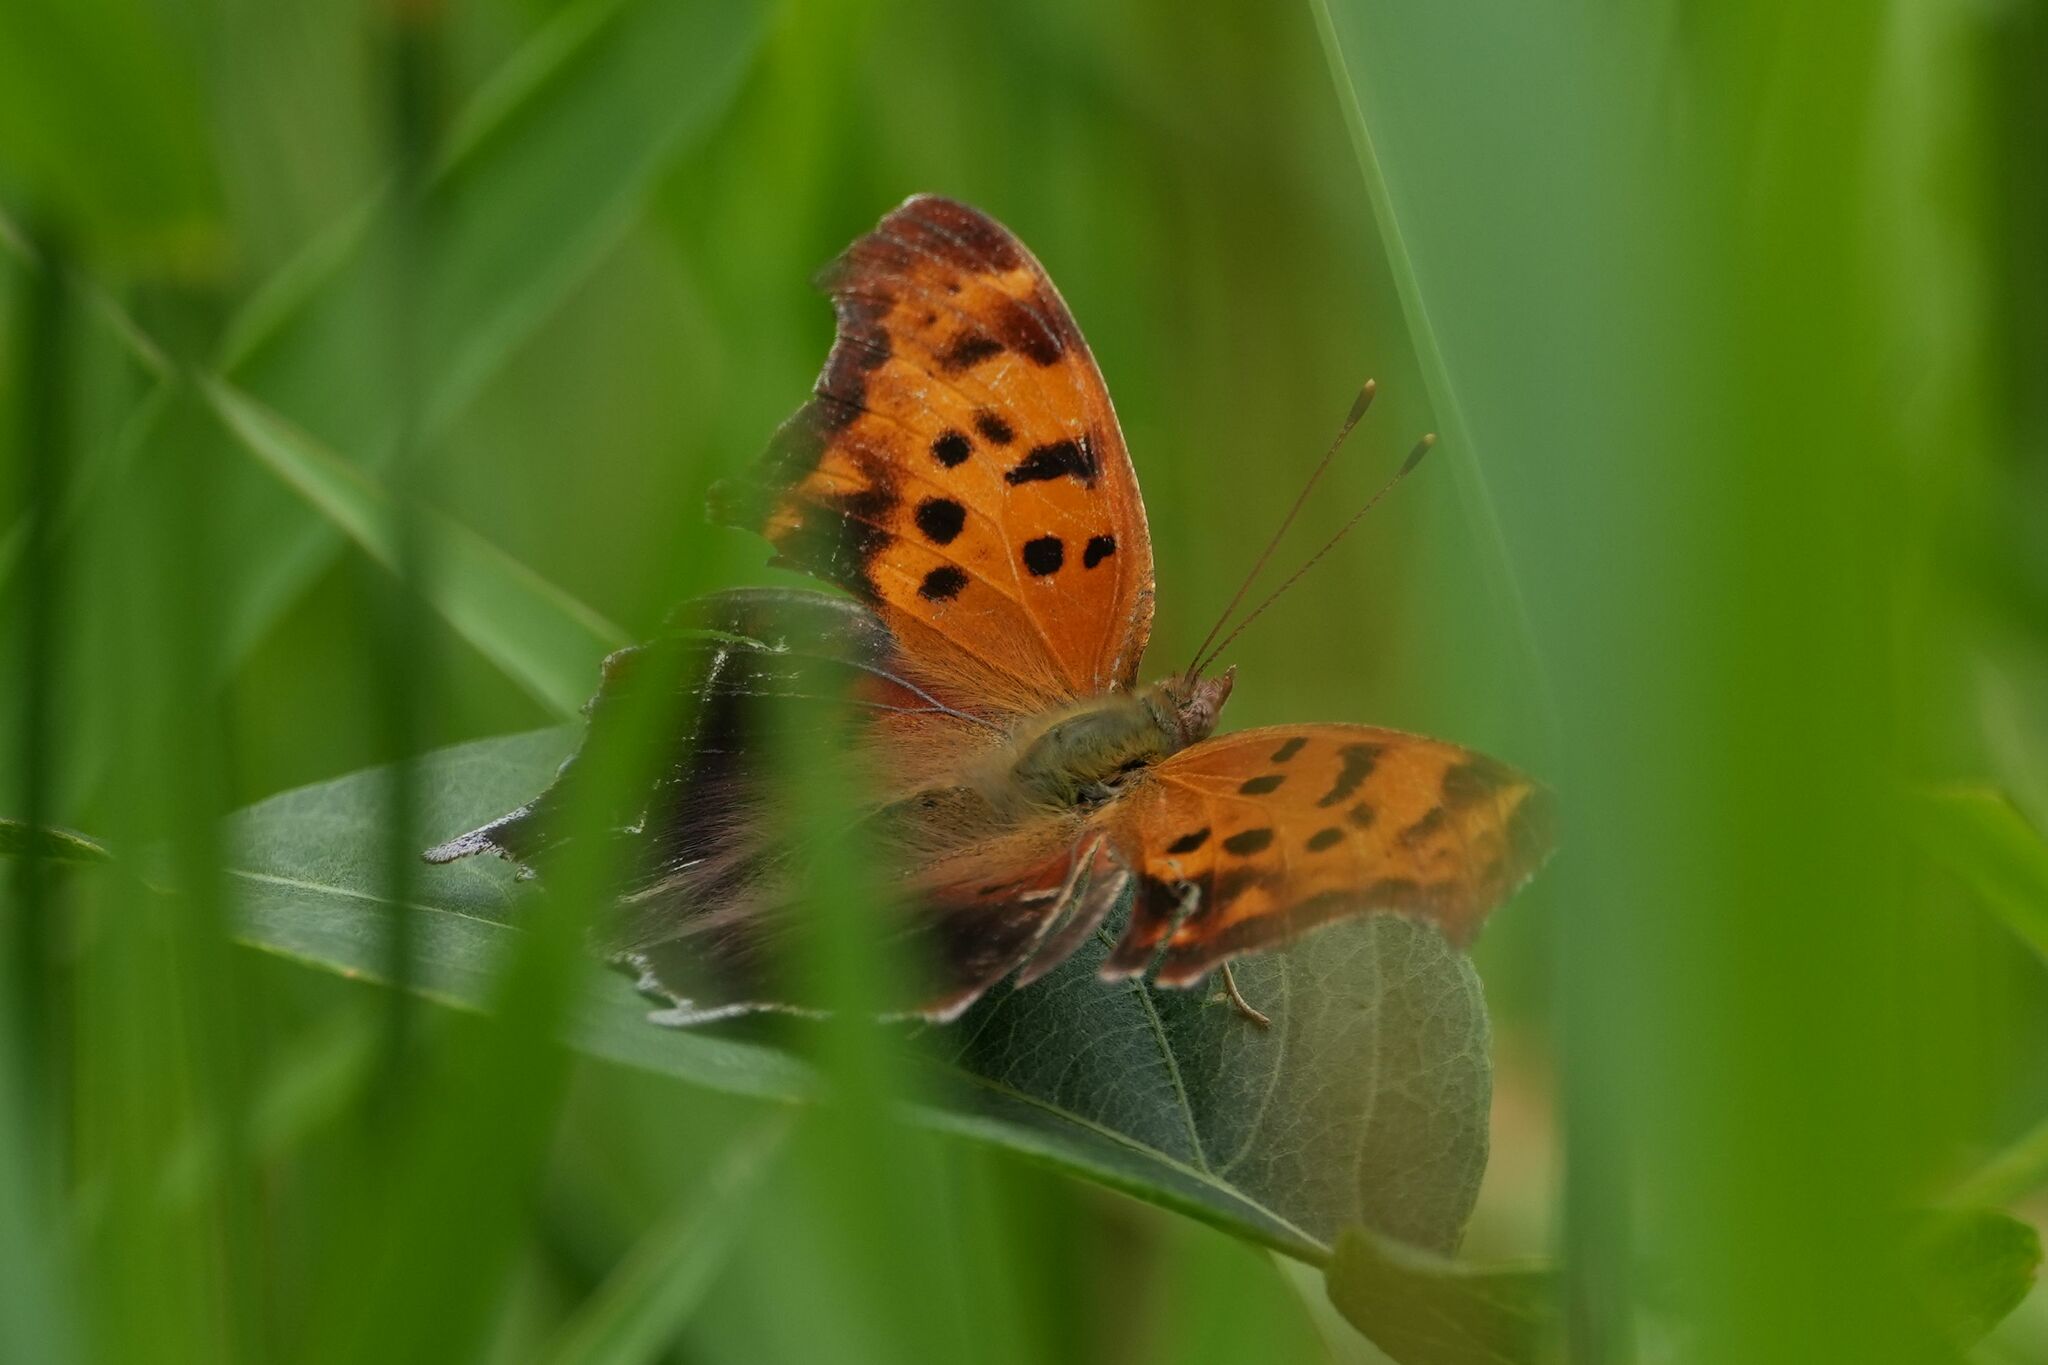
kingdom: Animalia
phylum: Arthropoda
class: Insecta
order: Lepidoptera
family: Nymphalidae
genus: Polygonia
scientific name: Polygonia interrogationis
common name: Question mark
